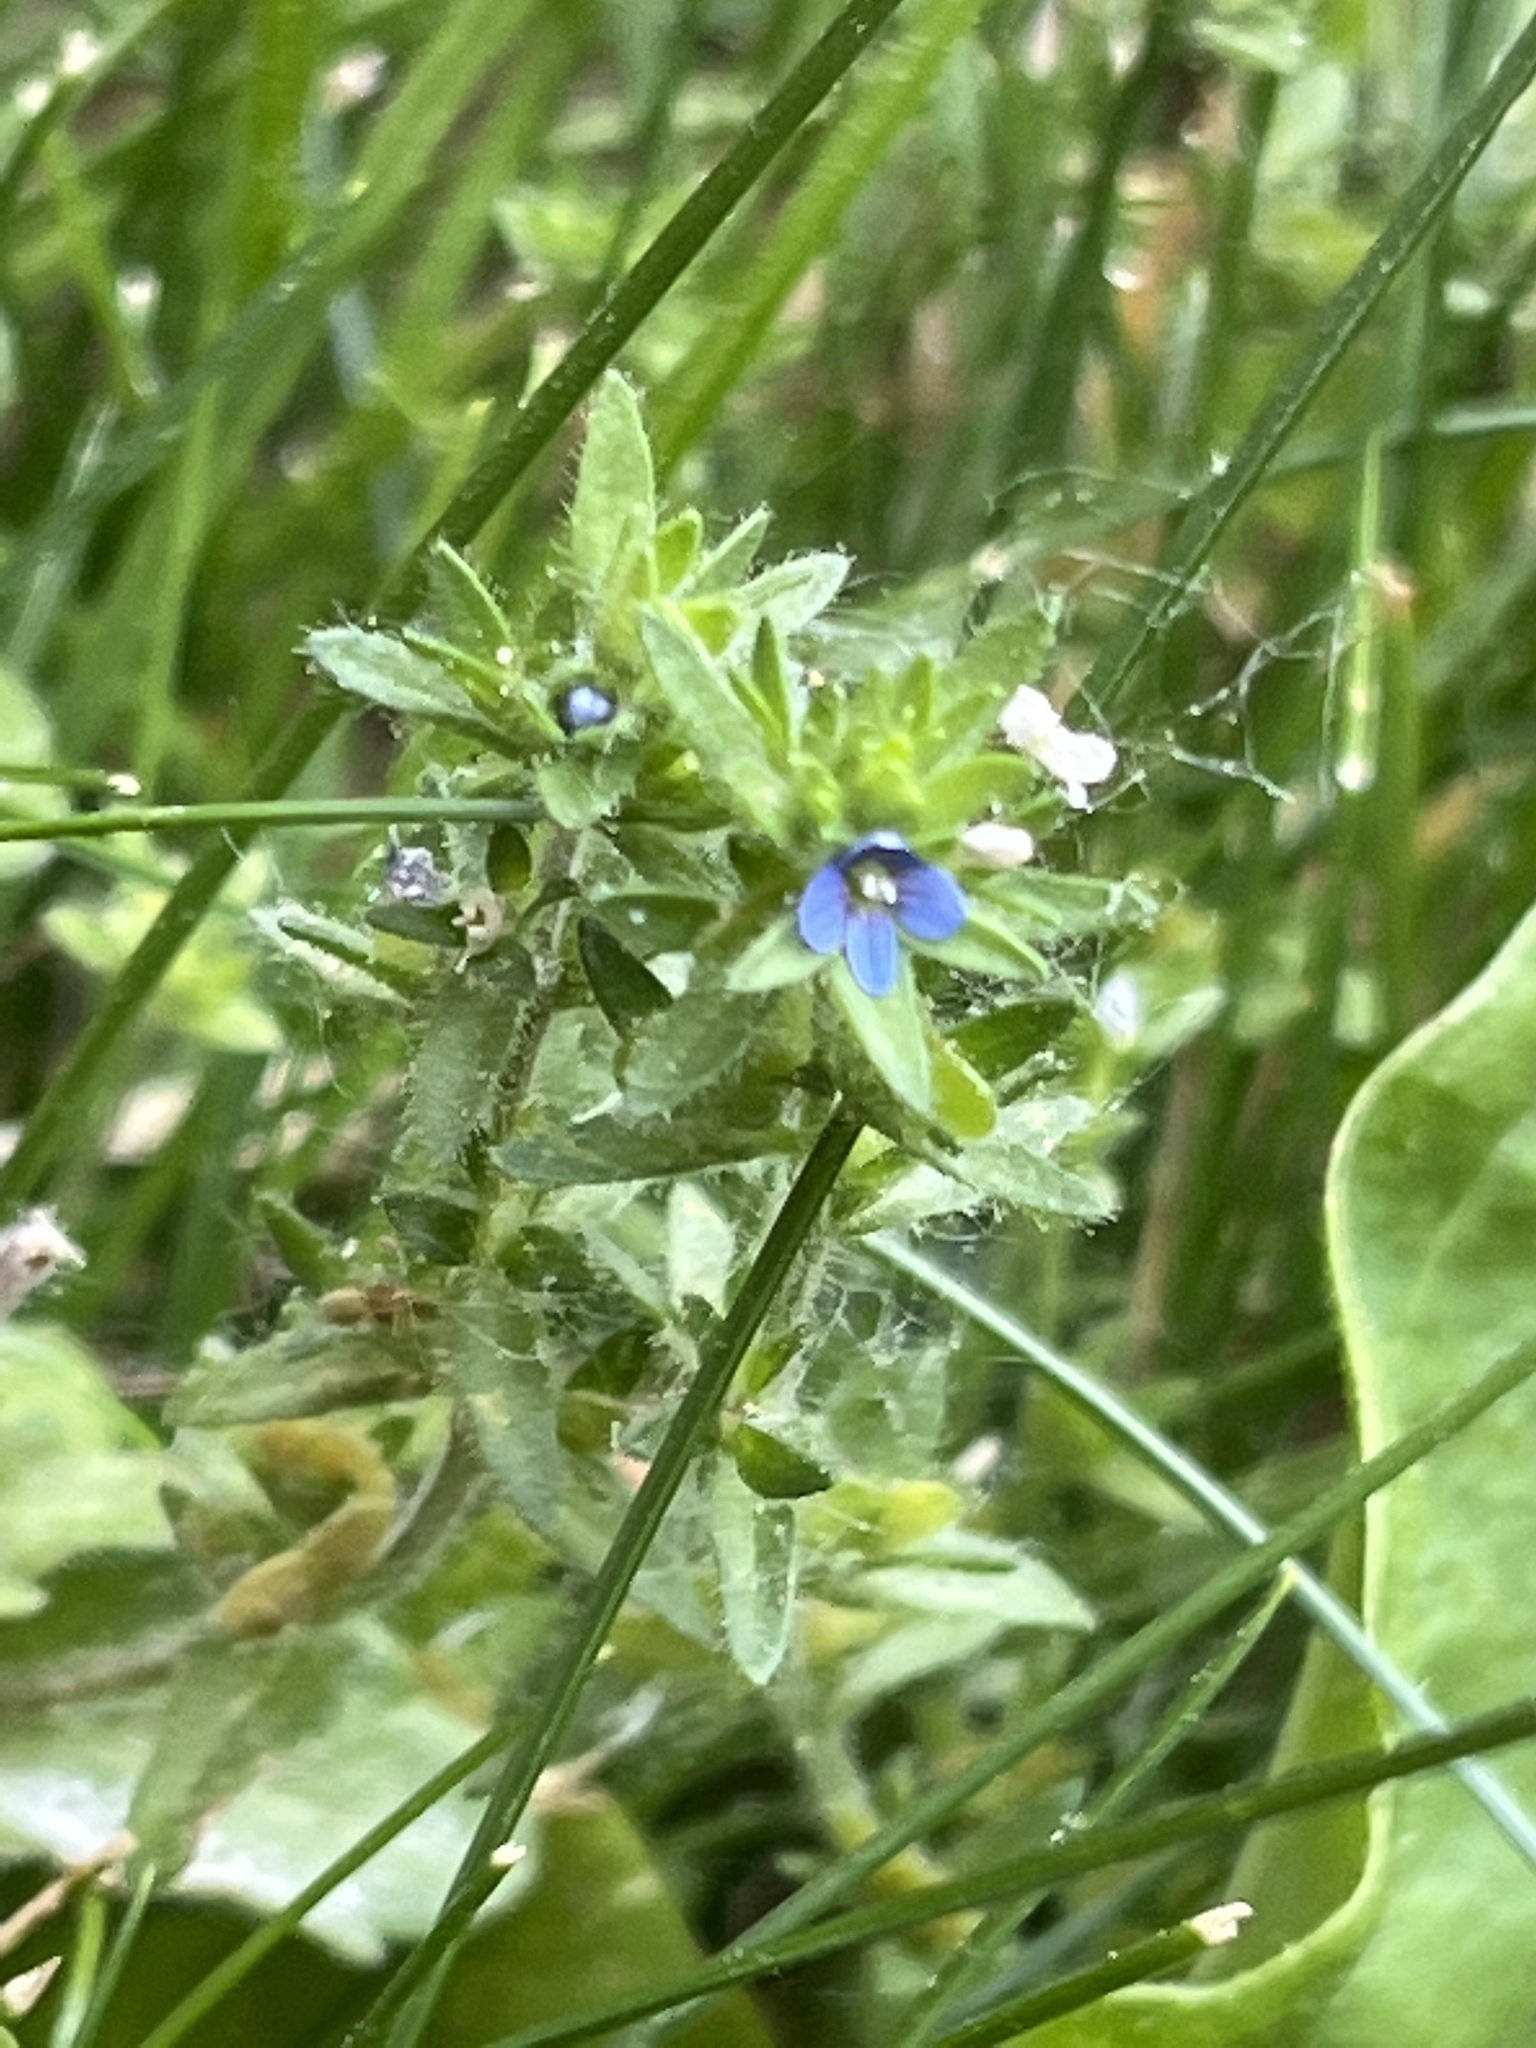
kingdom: Plantae
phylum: Tracheophyta
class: Magnoliopsida
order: Lamiales
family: Plantaginaceae
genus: Veronica
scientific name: Veronica arvensis
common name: Corn speedwell
